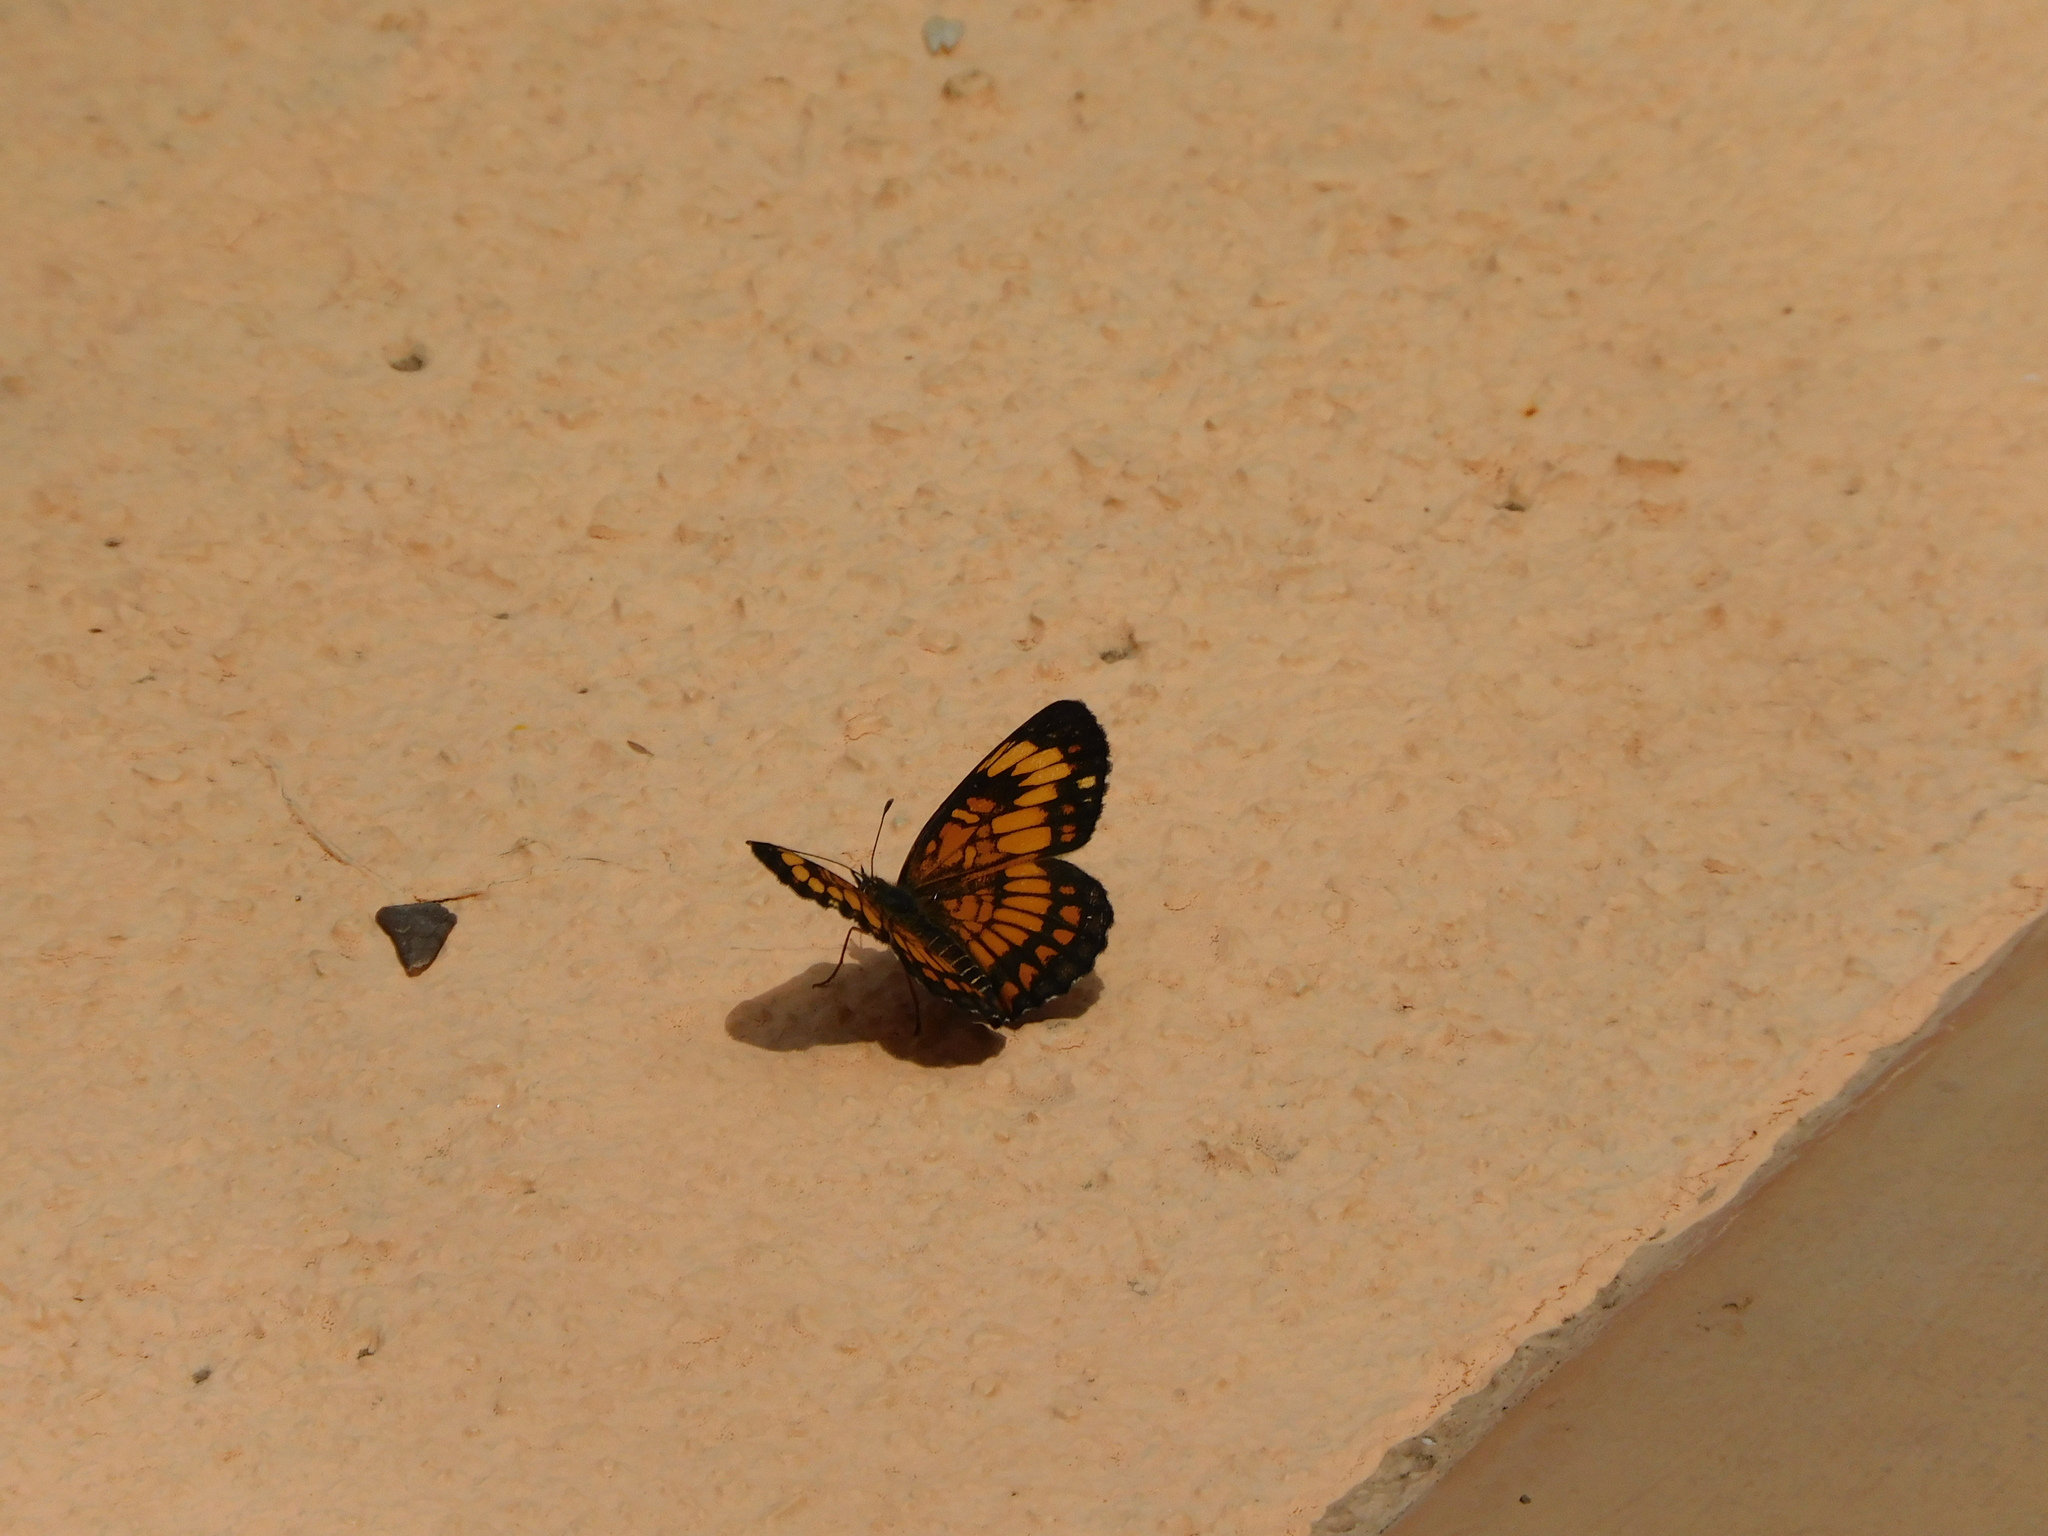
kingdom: Animalia
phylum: Arthropoda
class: Insecta
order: Lepidoptera
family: Nymphalidae
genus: Thessalia
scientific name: Thessalia theona
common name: Nymphalid moth
